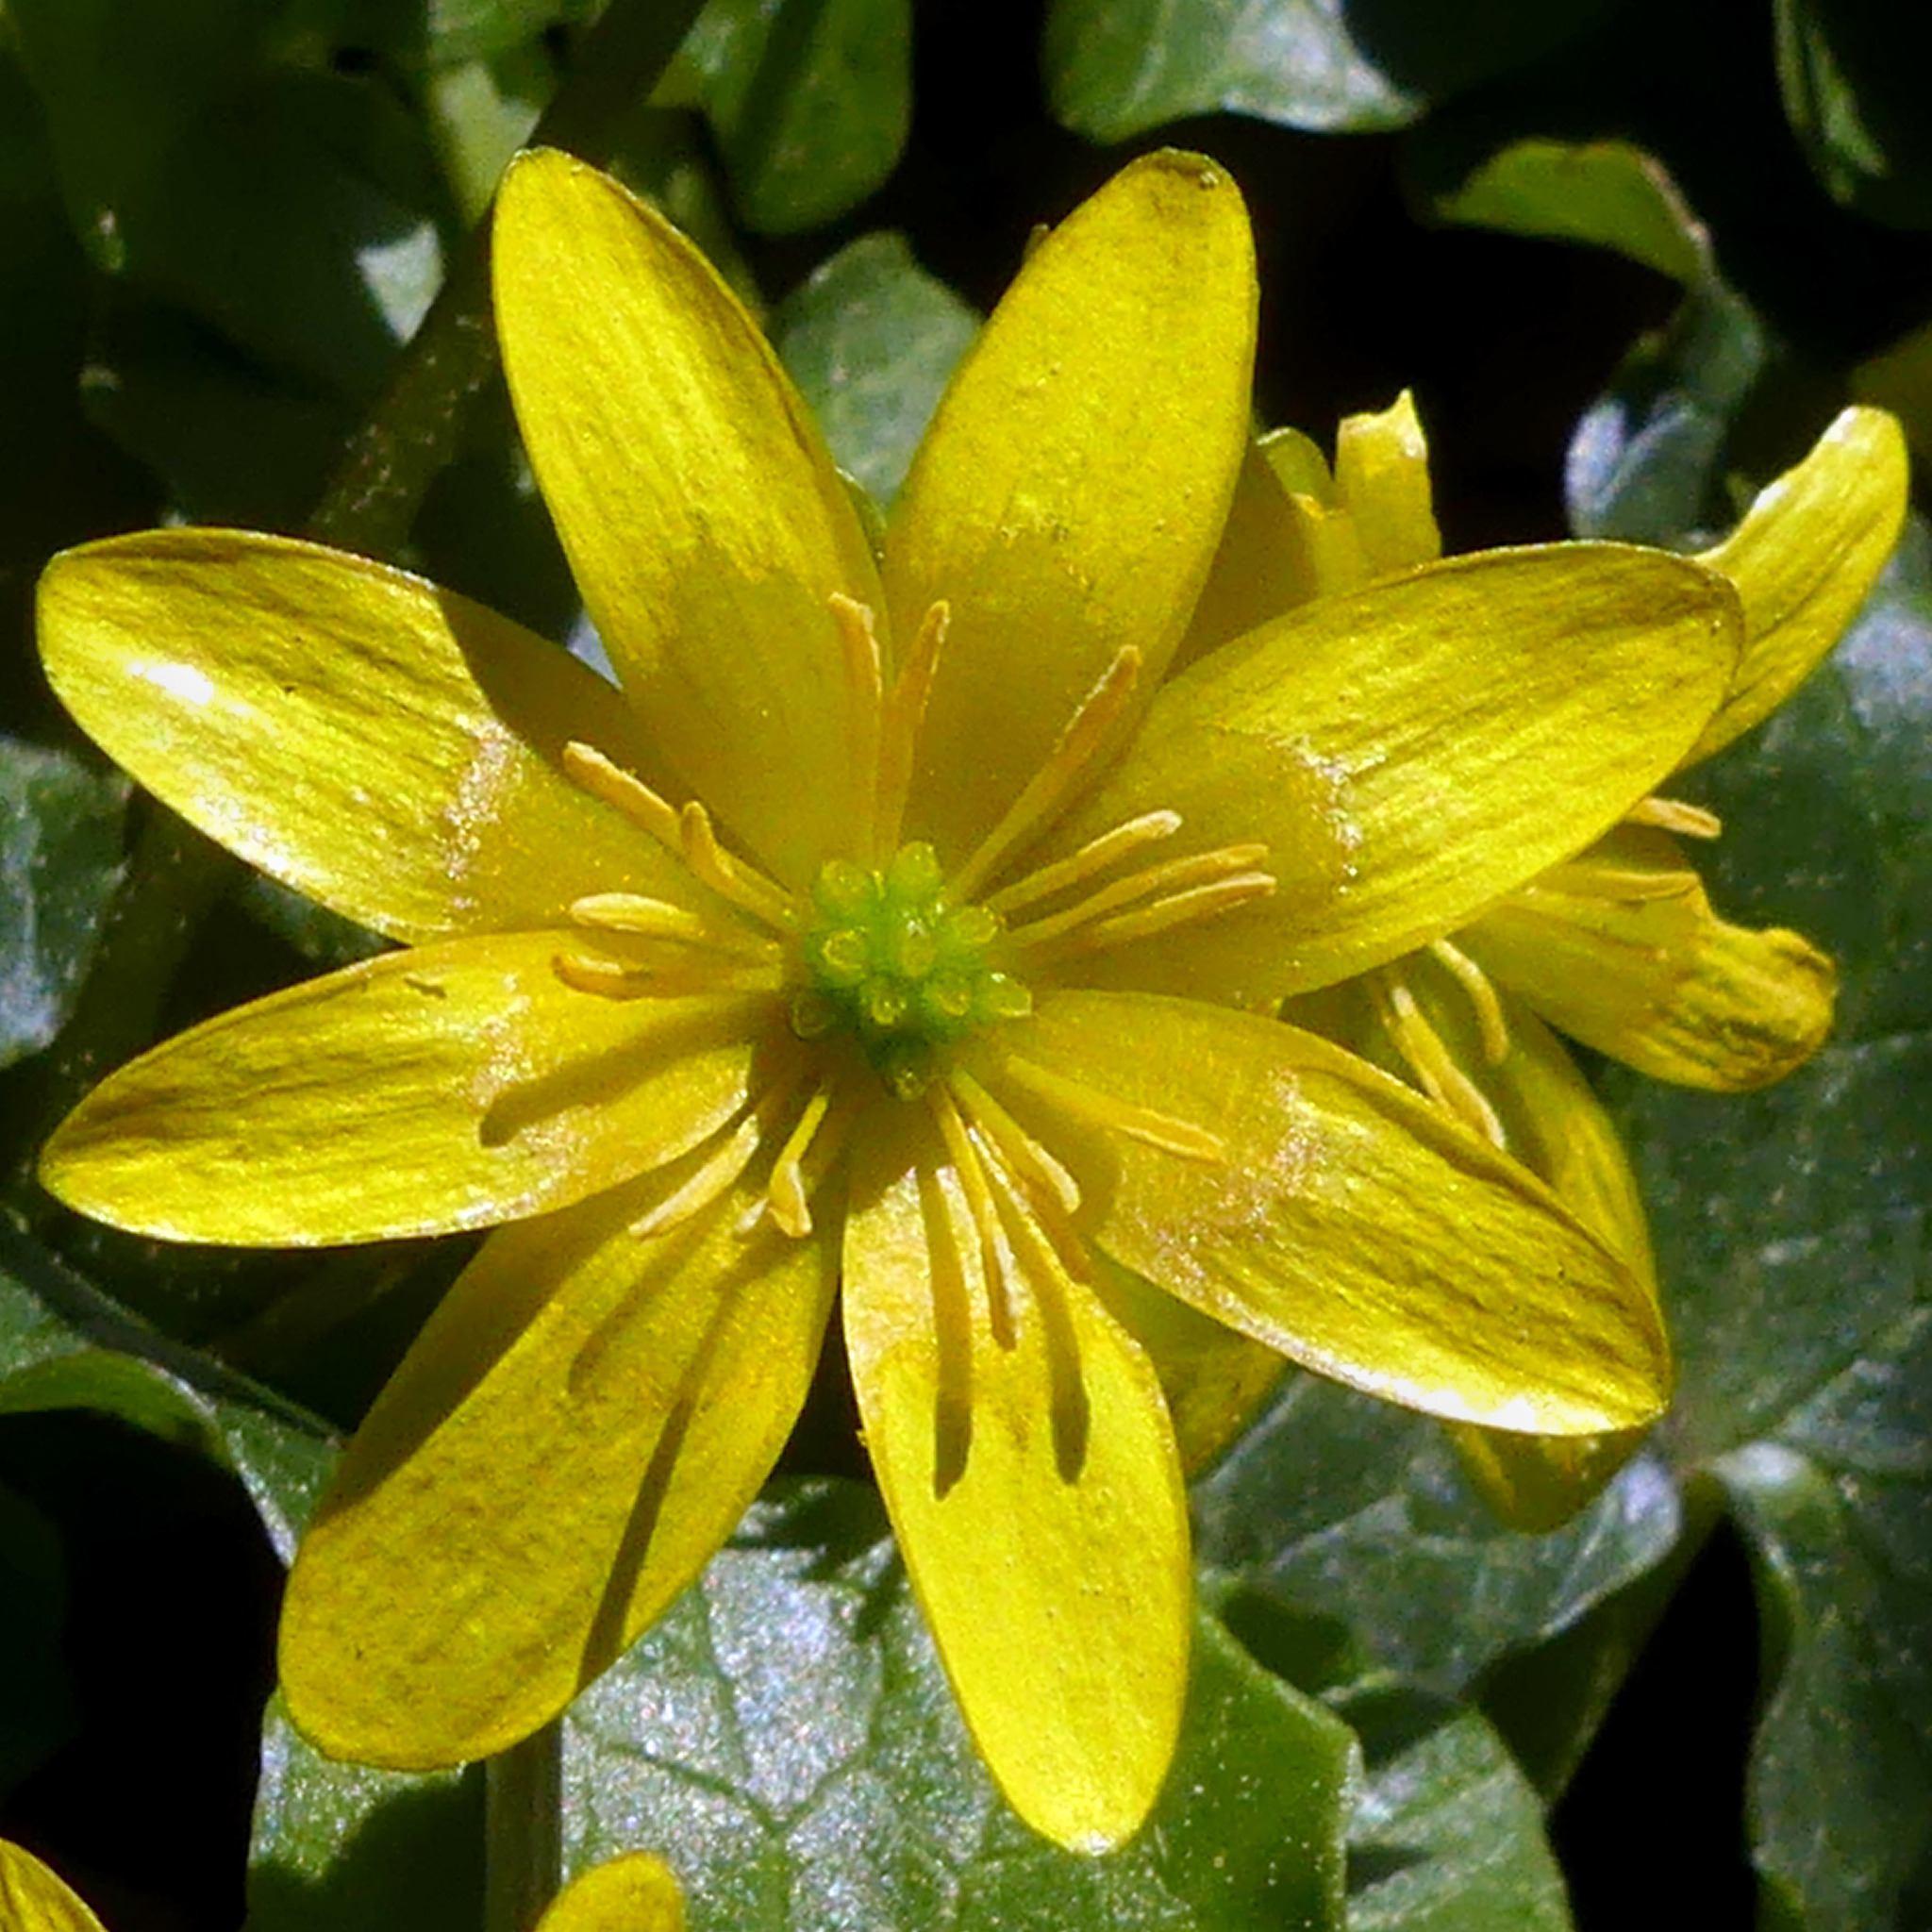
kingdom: Plantae
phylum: Tracheophyta
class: Magnoliopsida
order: Ranunculales
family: Ranunculaceae
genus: Ficaria
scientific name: Ficaria verna
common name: Lesser celandine
